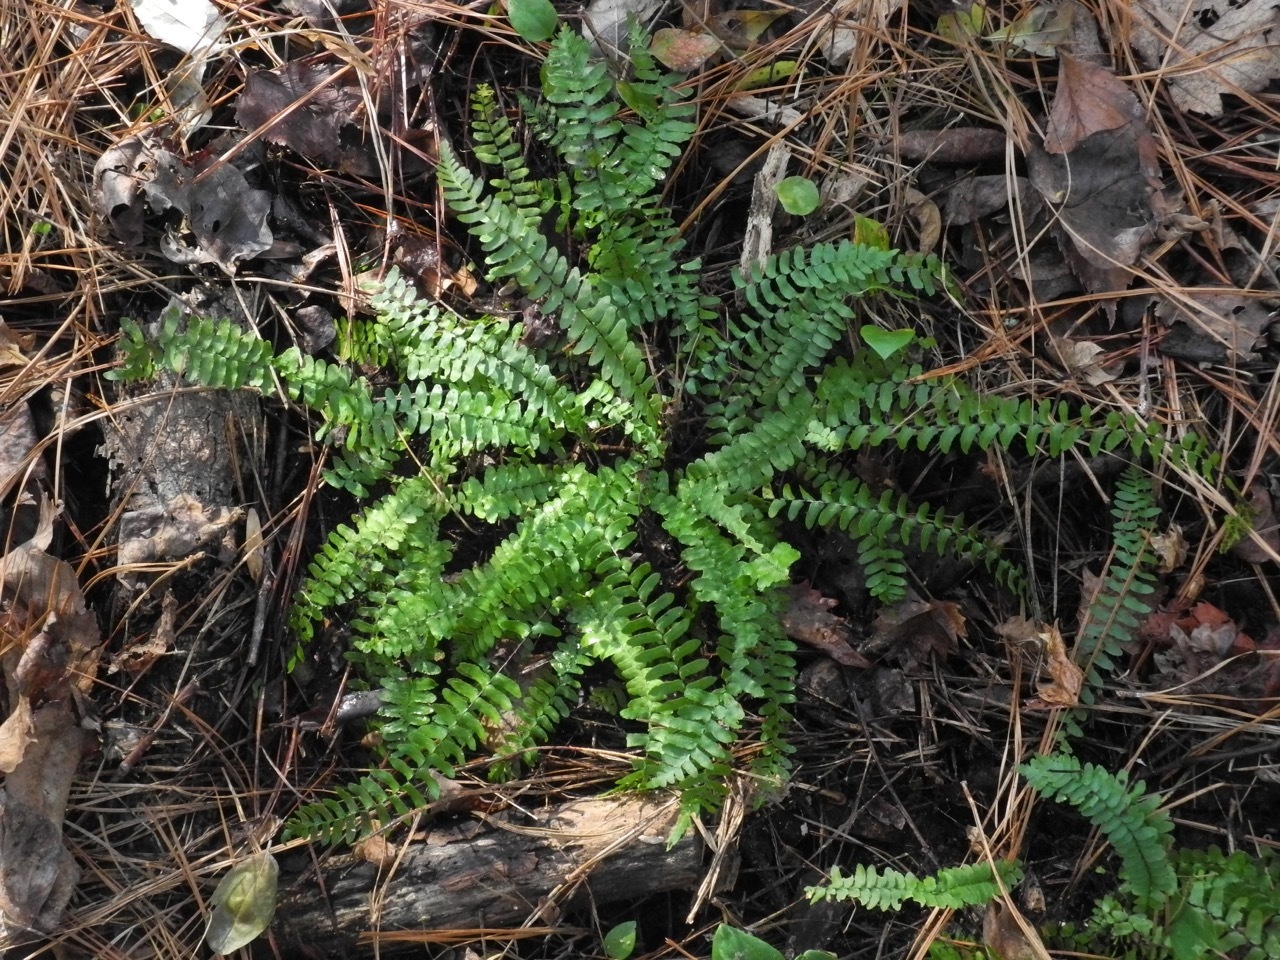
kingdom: Plantae
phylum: Tracheophyta
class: Polypodiopsida
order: Polypodiales
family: Aspleniaceae
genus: Asplenium
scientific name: Asplenium platyneuron
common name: Ebony spleenwort
